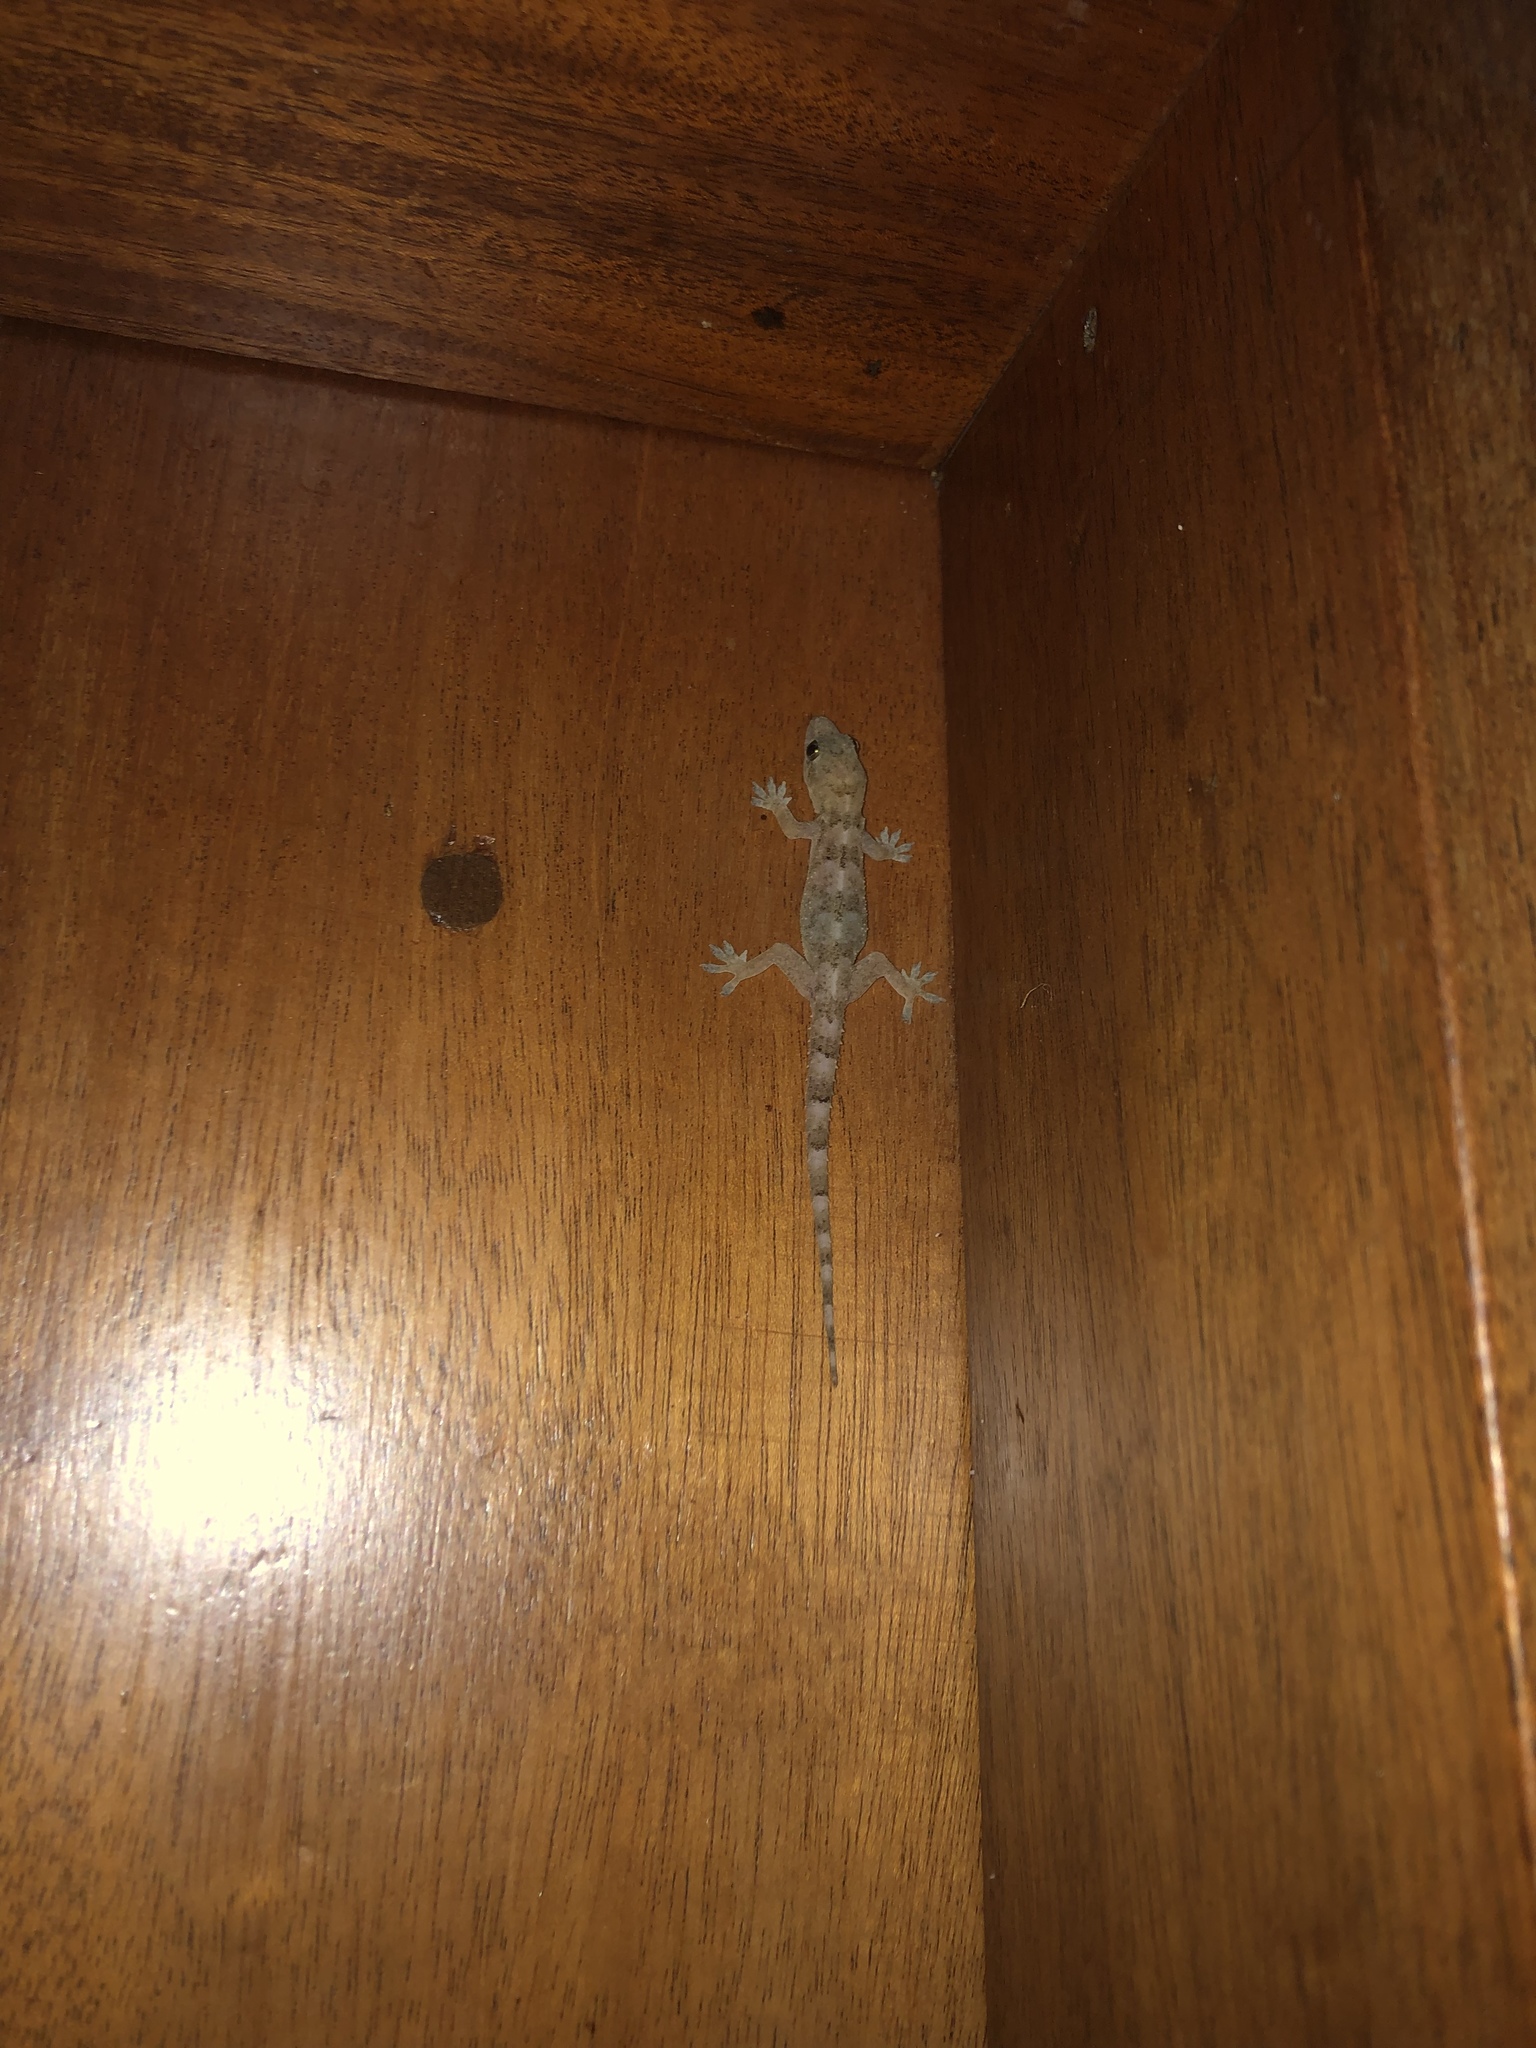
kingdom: Animalia
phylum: Chordata
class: Squamata
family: Gekkonidae
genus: Hemidactylus
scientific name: Hemidactylus mabouia
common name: House gecko
